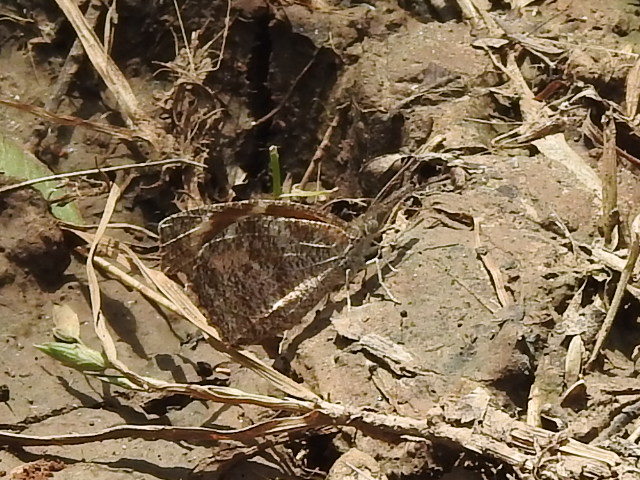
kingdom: Animalia
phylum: Arthropoda
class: Insecta
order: Lepidoptera
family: Nymphalidae
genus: Libytheana
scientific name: Libytheana carinenta
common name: American snout
